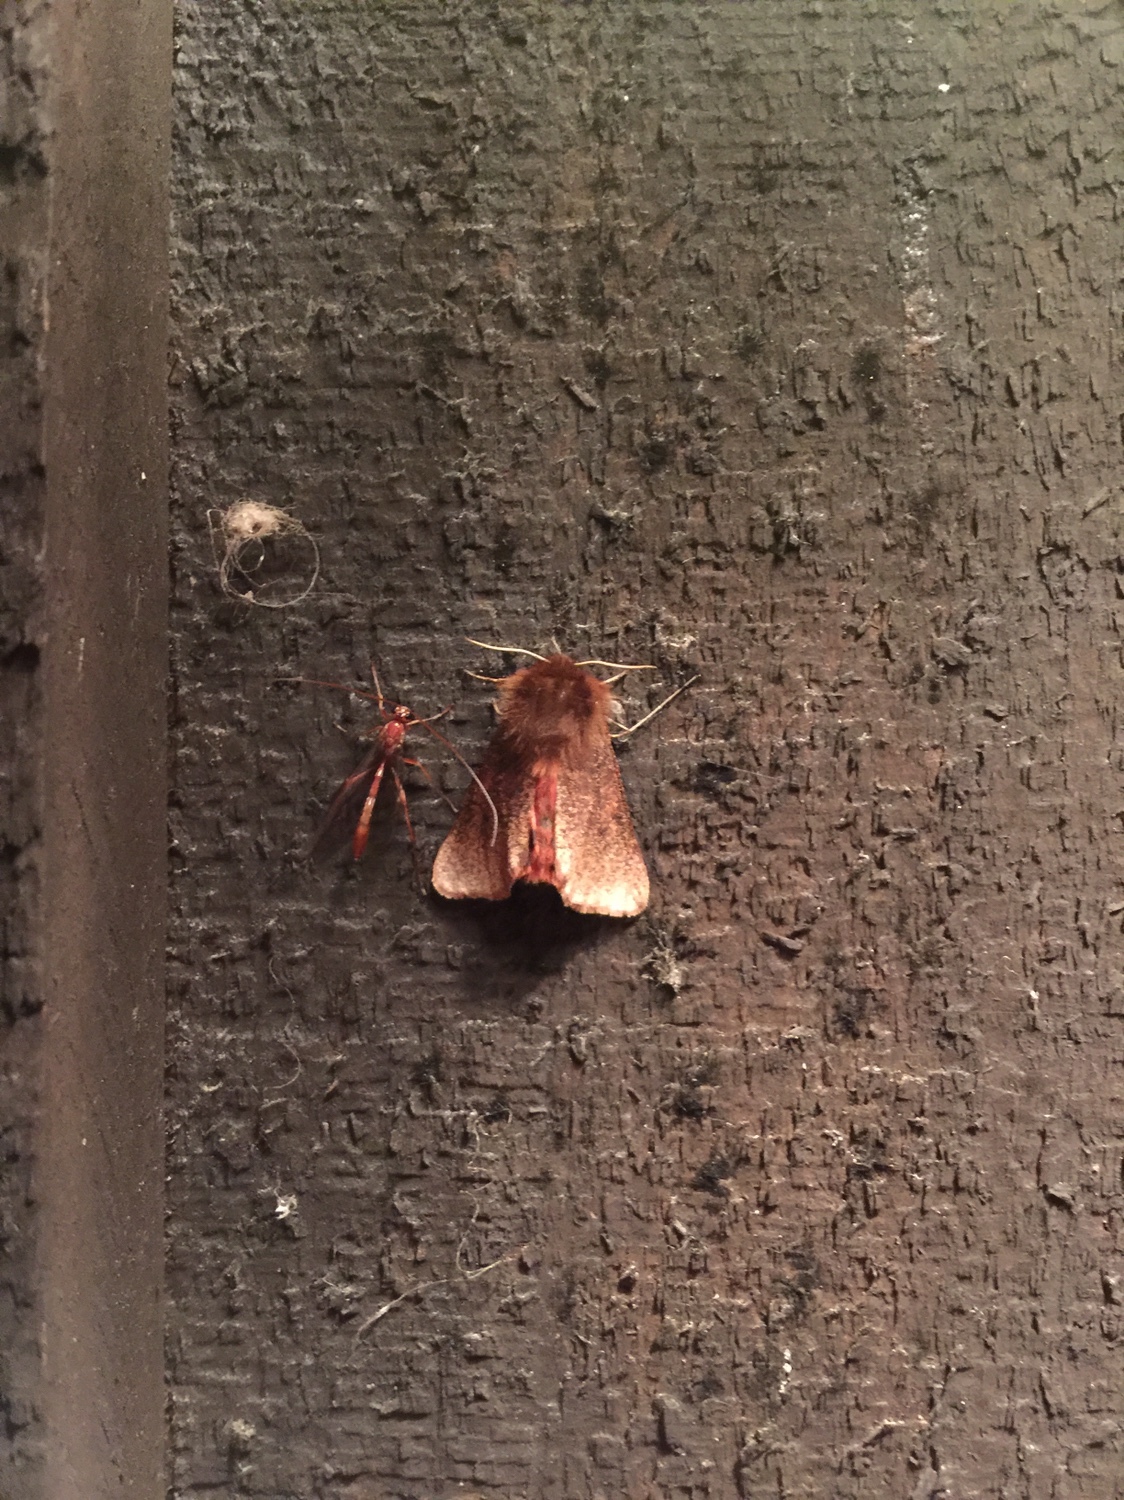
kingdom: Animalia
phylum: Arthropoda
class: Insecta
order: Lepidoptera
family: Erebidae
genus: Phragmatobia
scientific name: Phragmatobia fuliginosa
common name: Ruby tiger
